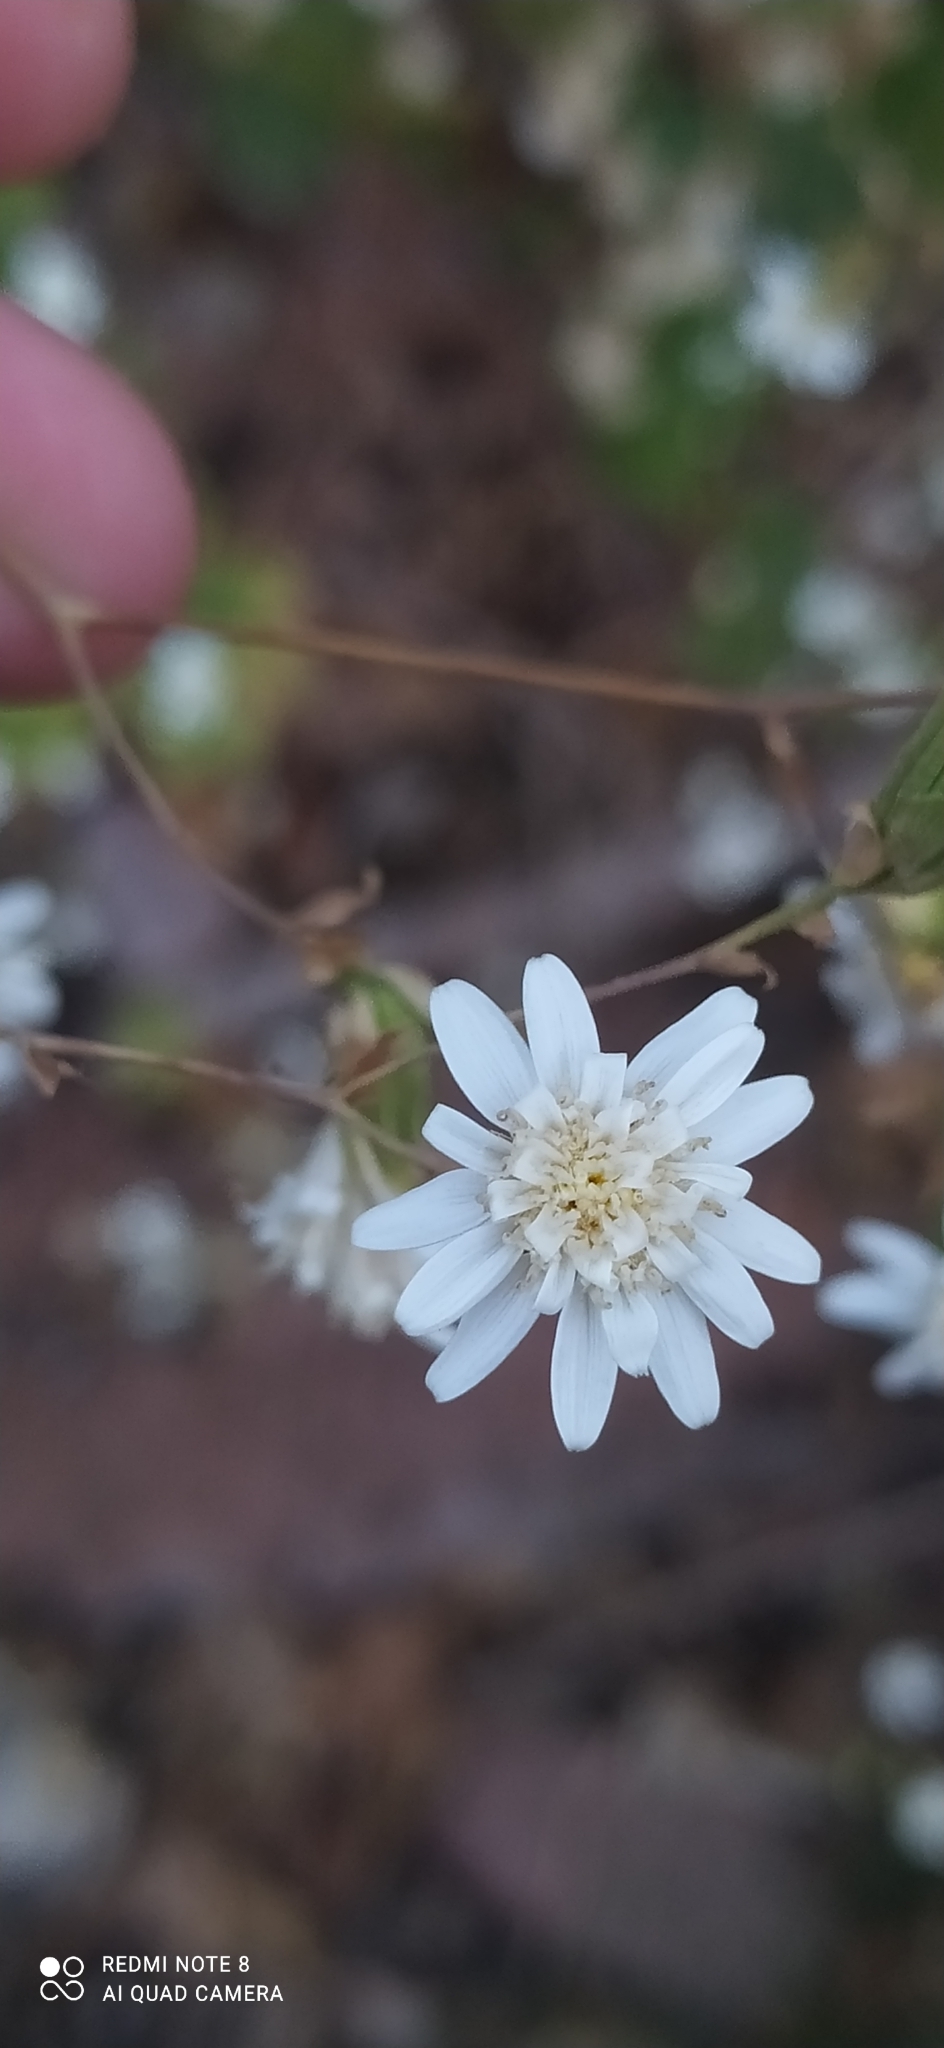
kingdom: Plantae
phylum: Tracheophyta
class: Magnoliopsida
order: Asterales
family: Asteraceae
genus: Jungia
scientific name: Jungia polita
